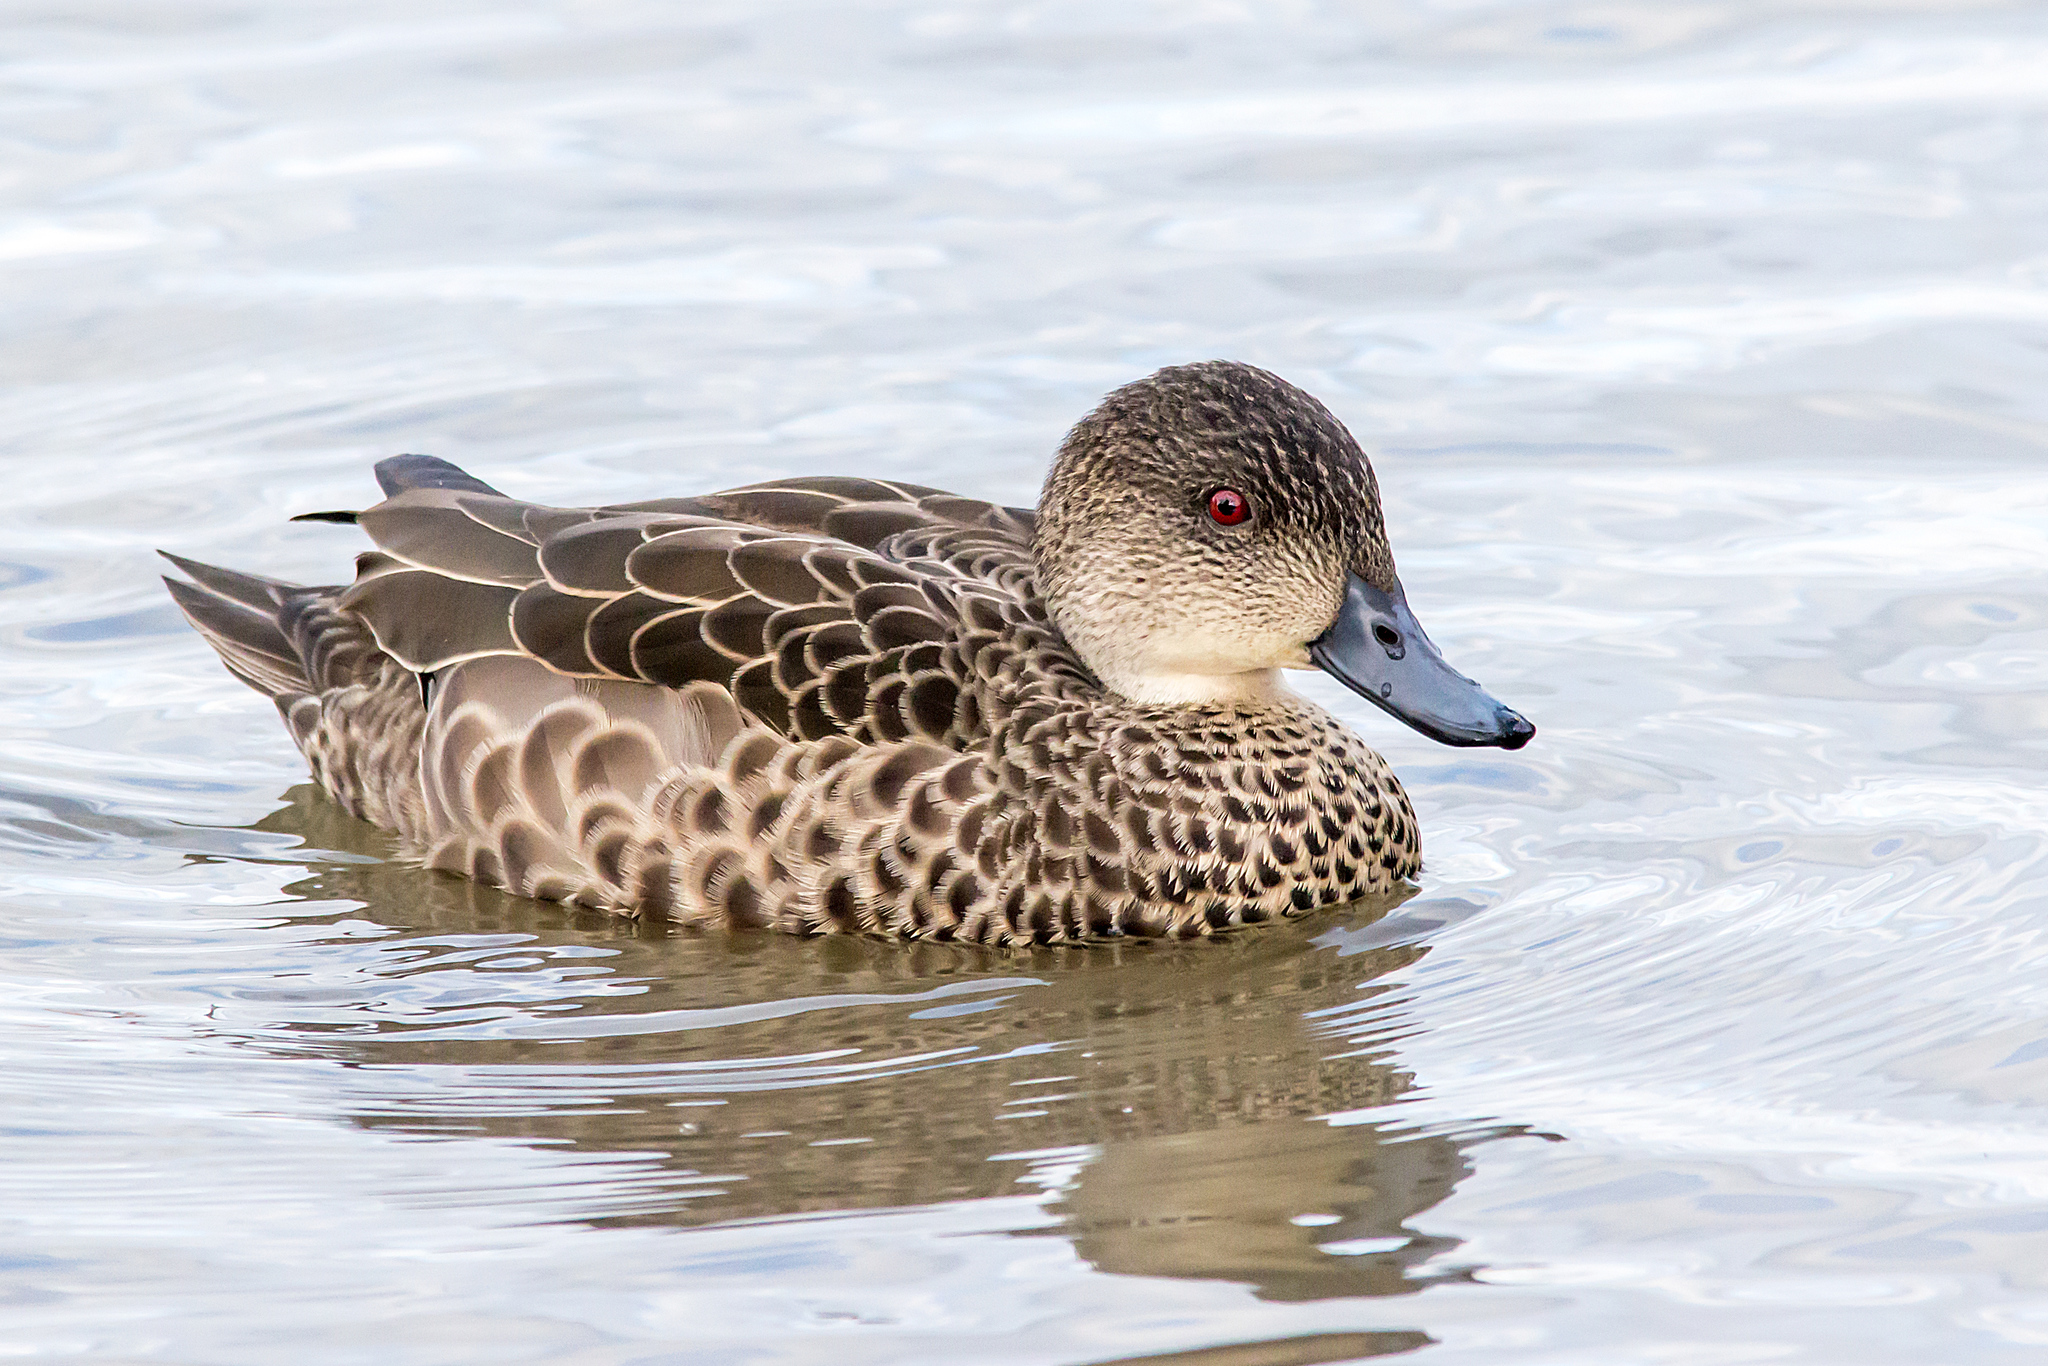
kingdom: Animalia
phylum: Chordata
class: Aves
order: Anseriformes
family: Anatidae
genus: Anas
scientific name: Anas gracilis
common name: Grey teal
